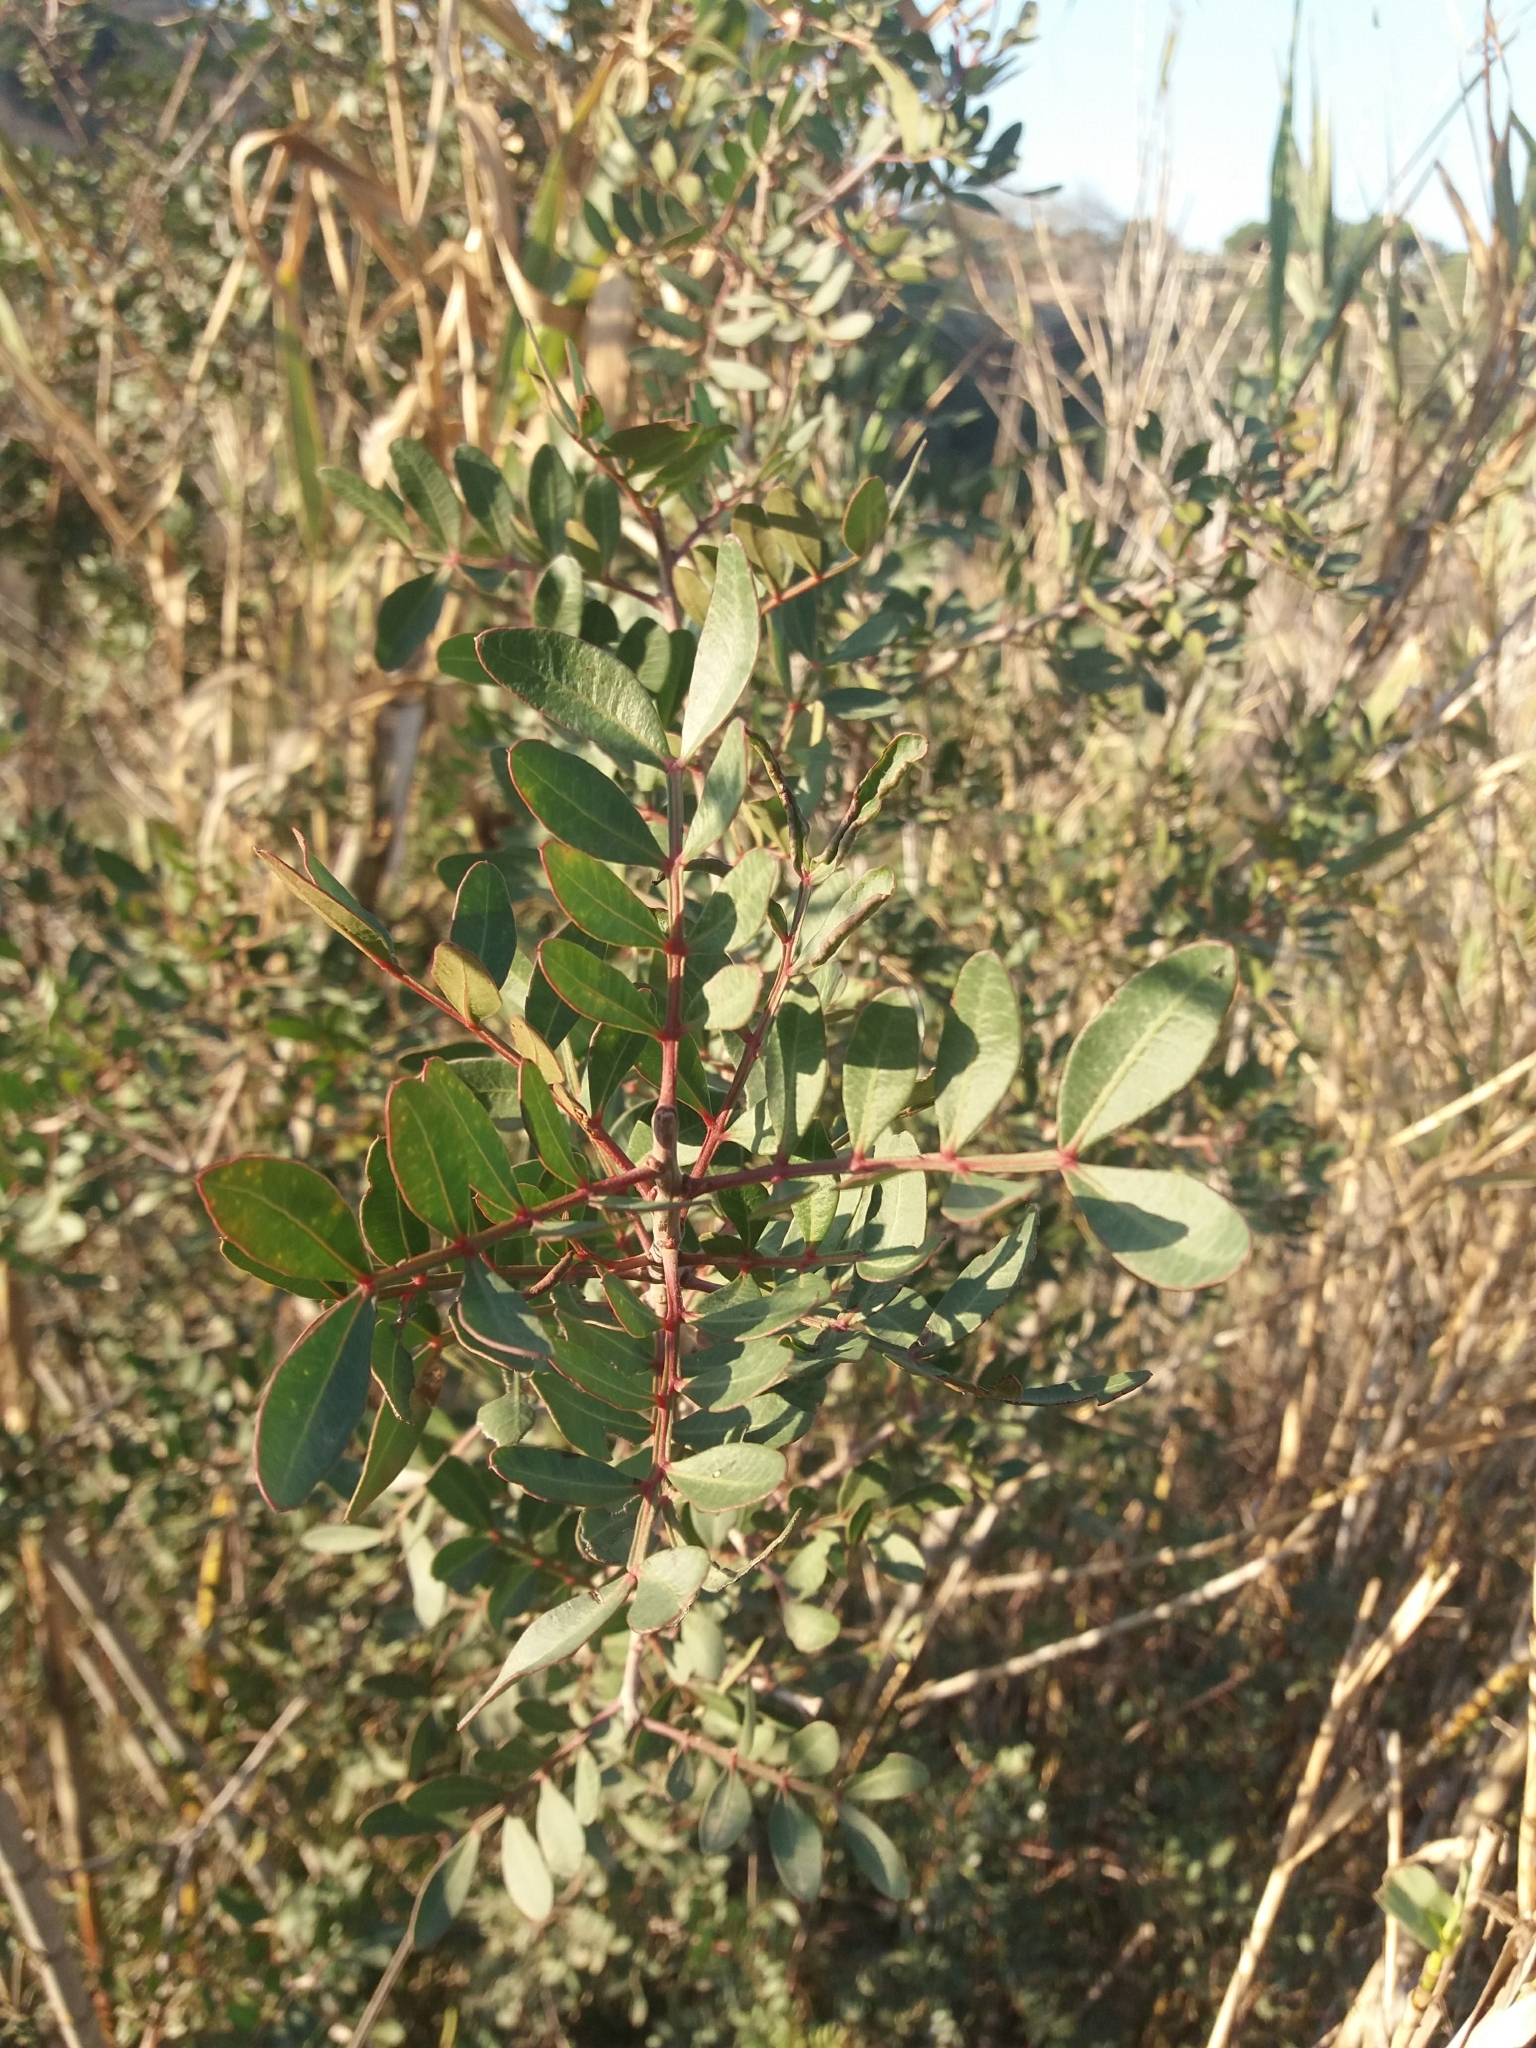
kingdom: Plantae
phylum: Tracheophyta
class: Magnoliopsida
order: Sapindales
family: Anacardiaceae
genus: Pistacia
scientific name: Pistacia lentiscus
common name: Lentisk
